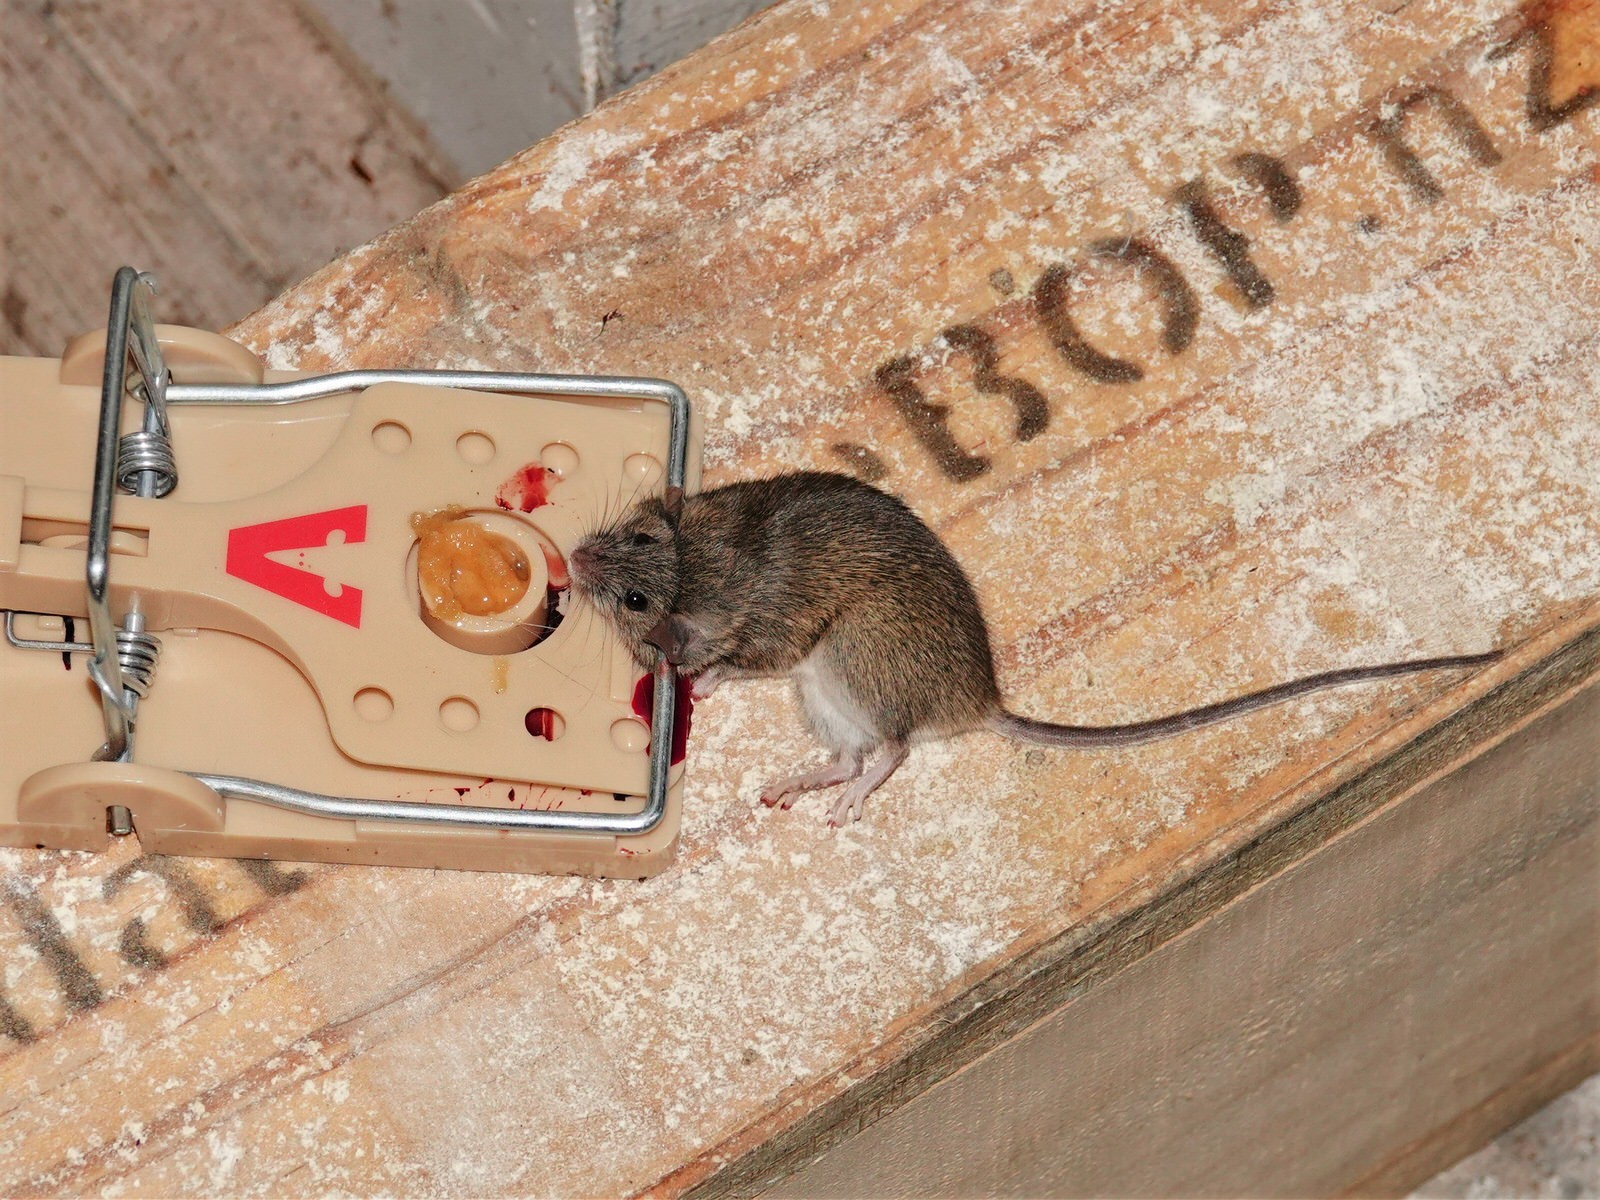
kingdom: Animalia
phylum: Chordata
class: Mammalia
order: Rodentia
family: Muridae
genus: Mus
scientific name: Mus musculus
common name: House mouse
